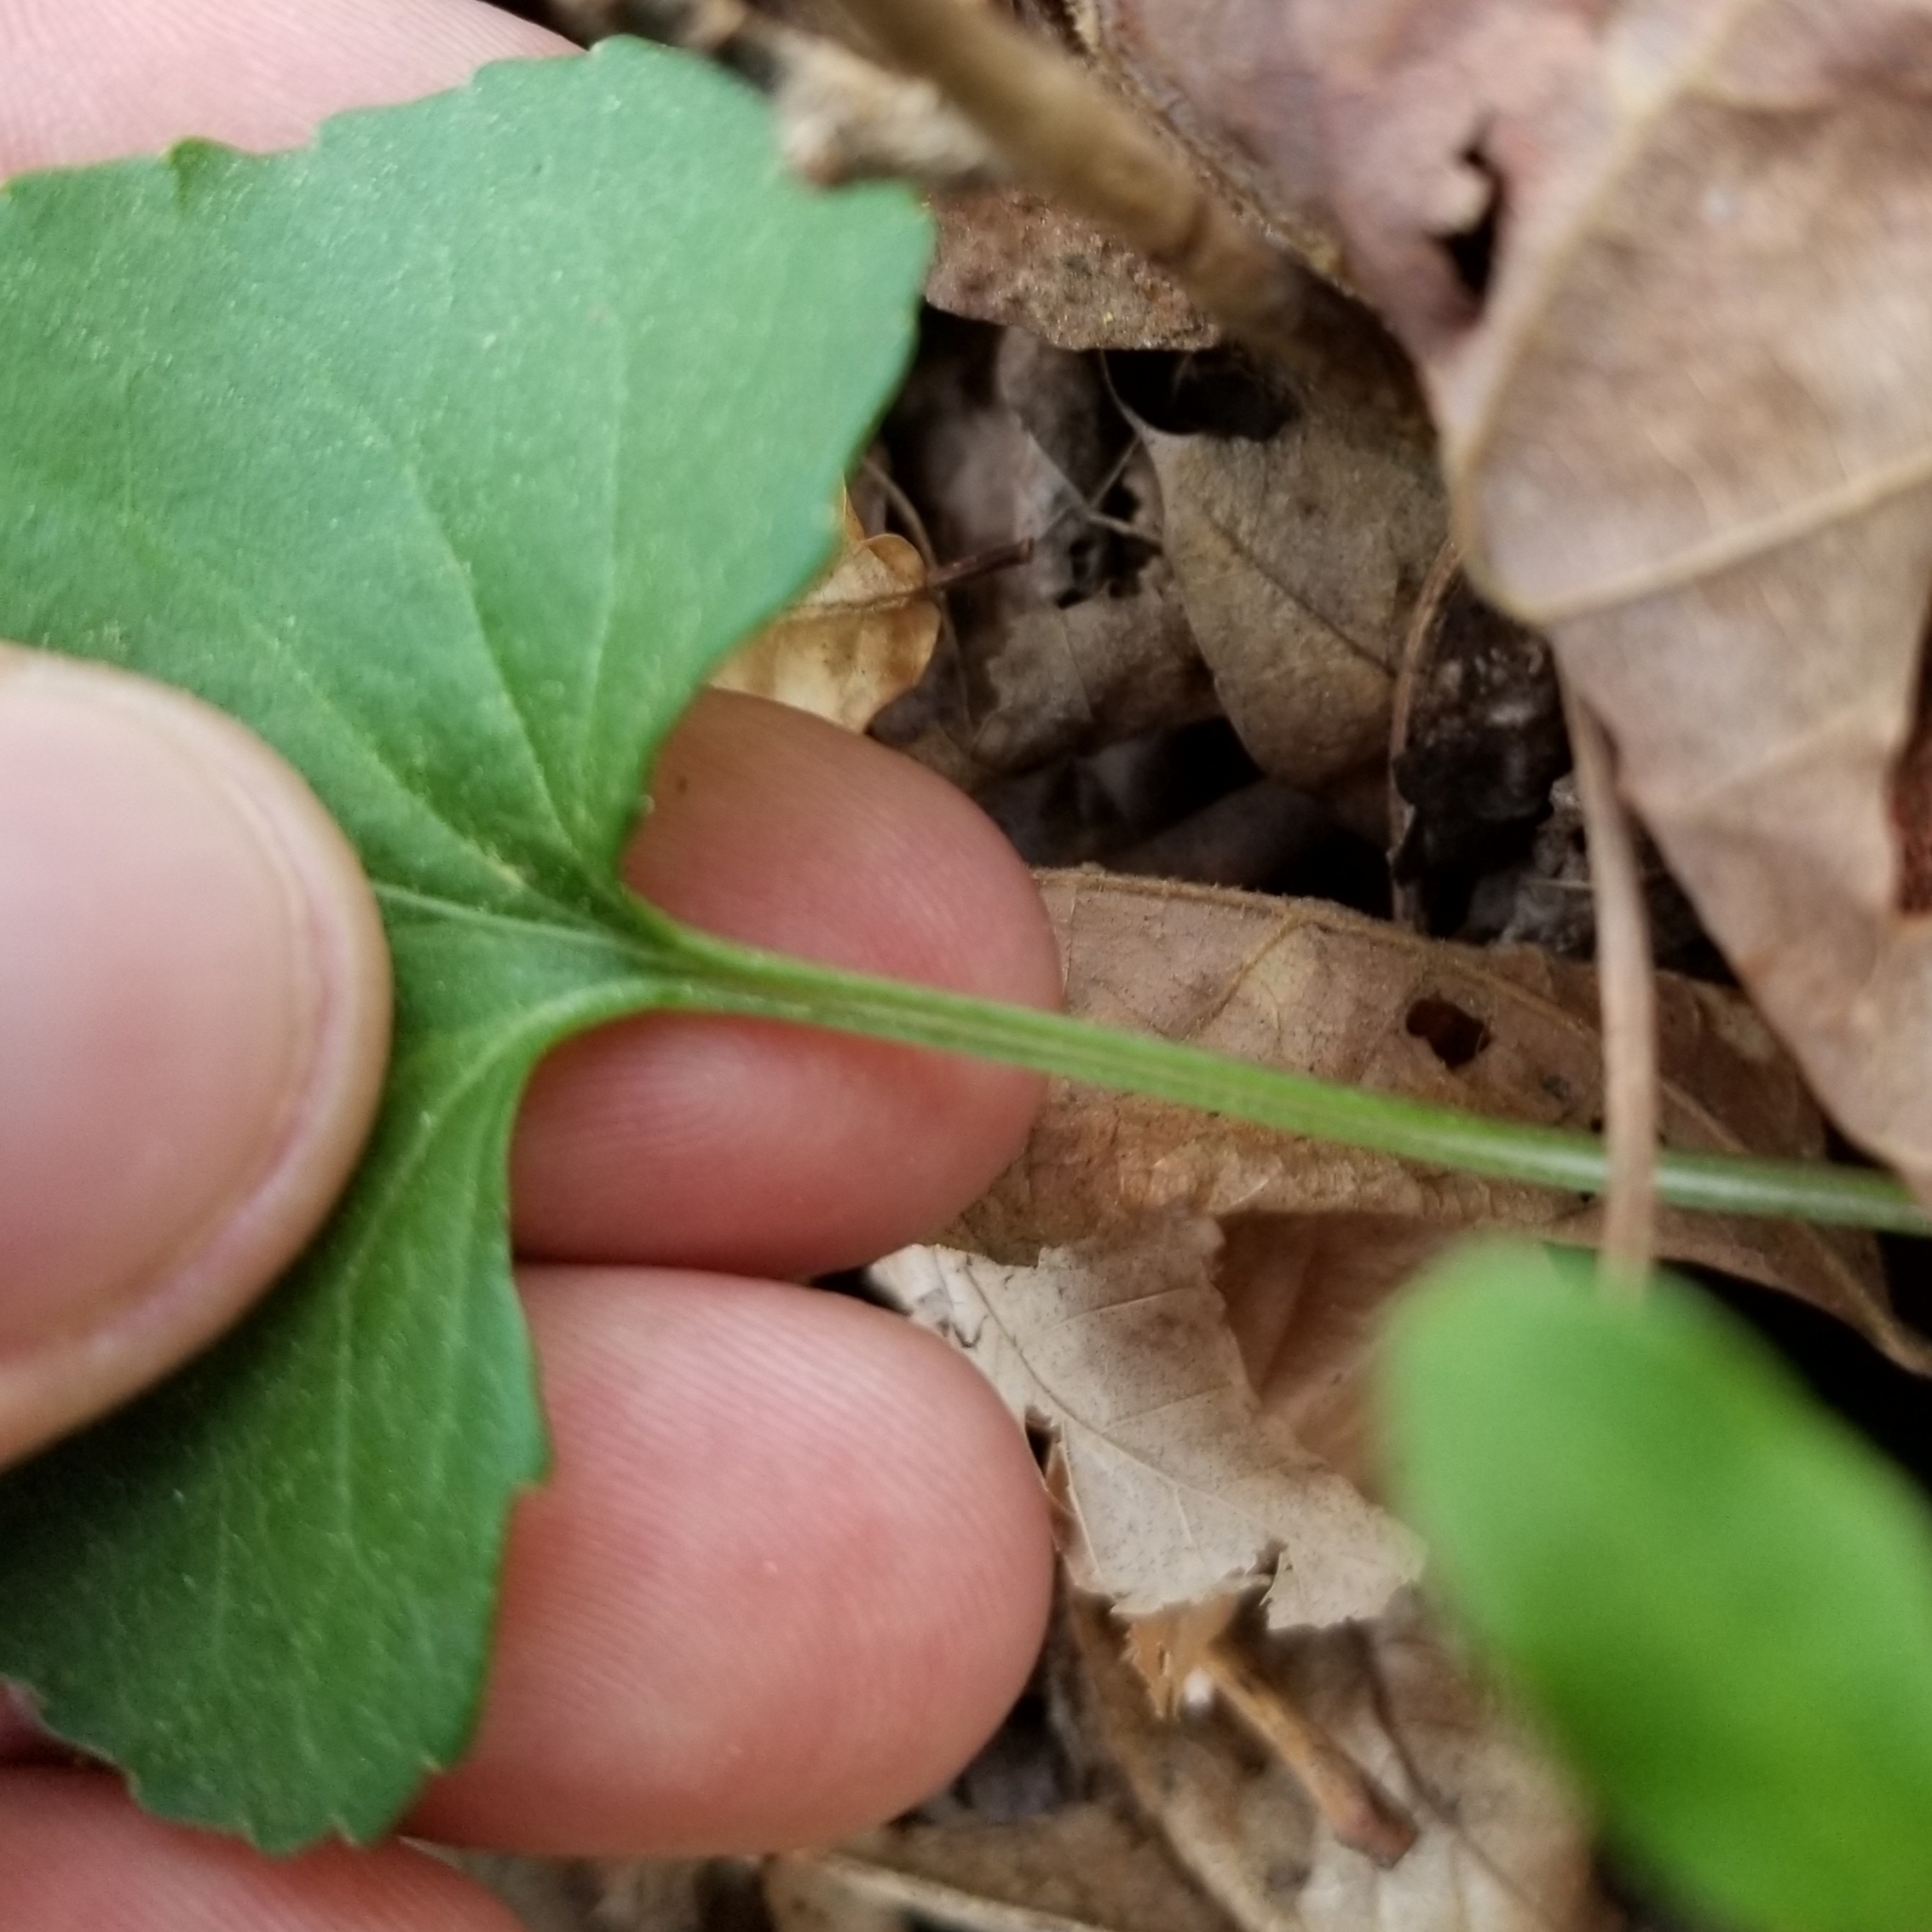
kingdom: Plantae
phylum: Tracheophyta
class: Magnoliopsida
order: Malpighiales
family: Violaceae
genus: Viola
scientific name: Viola sororia
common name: Dooryard violet
